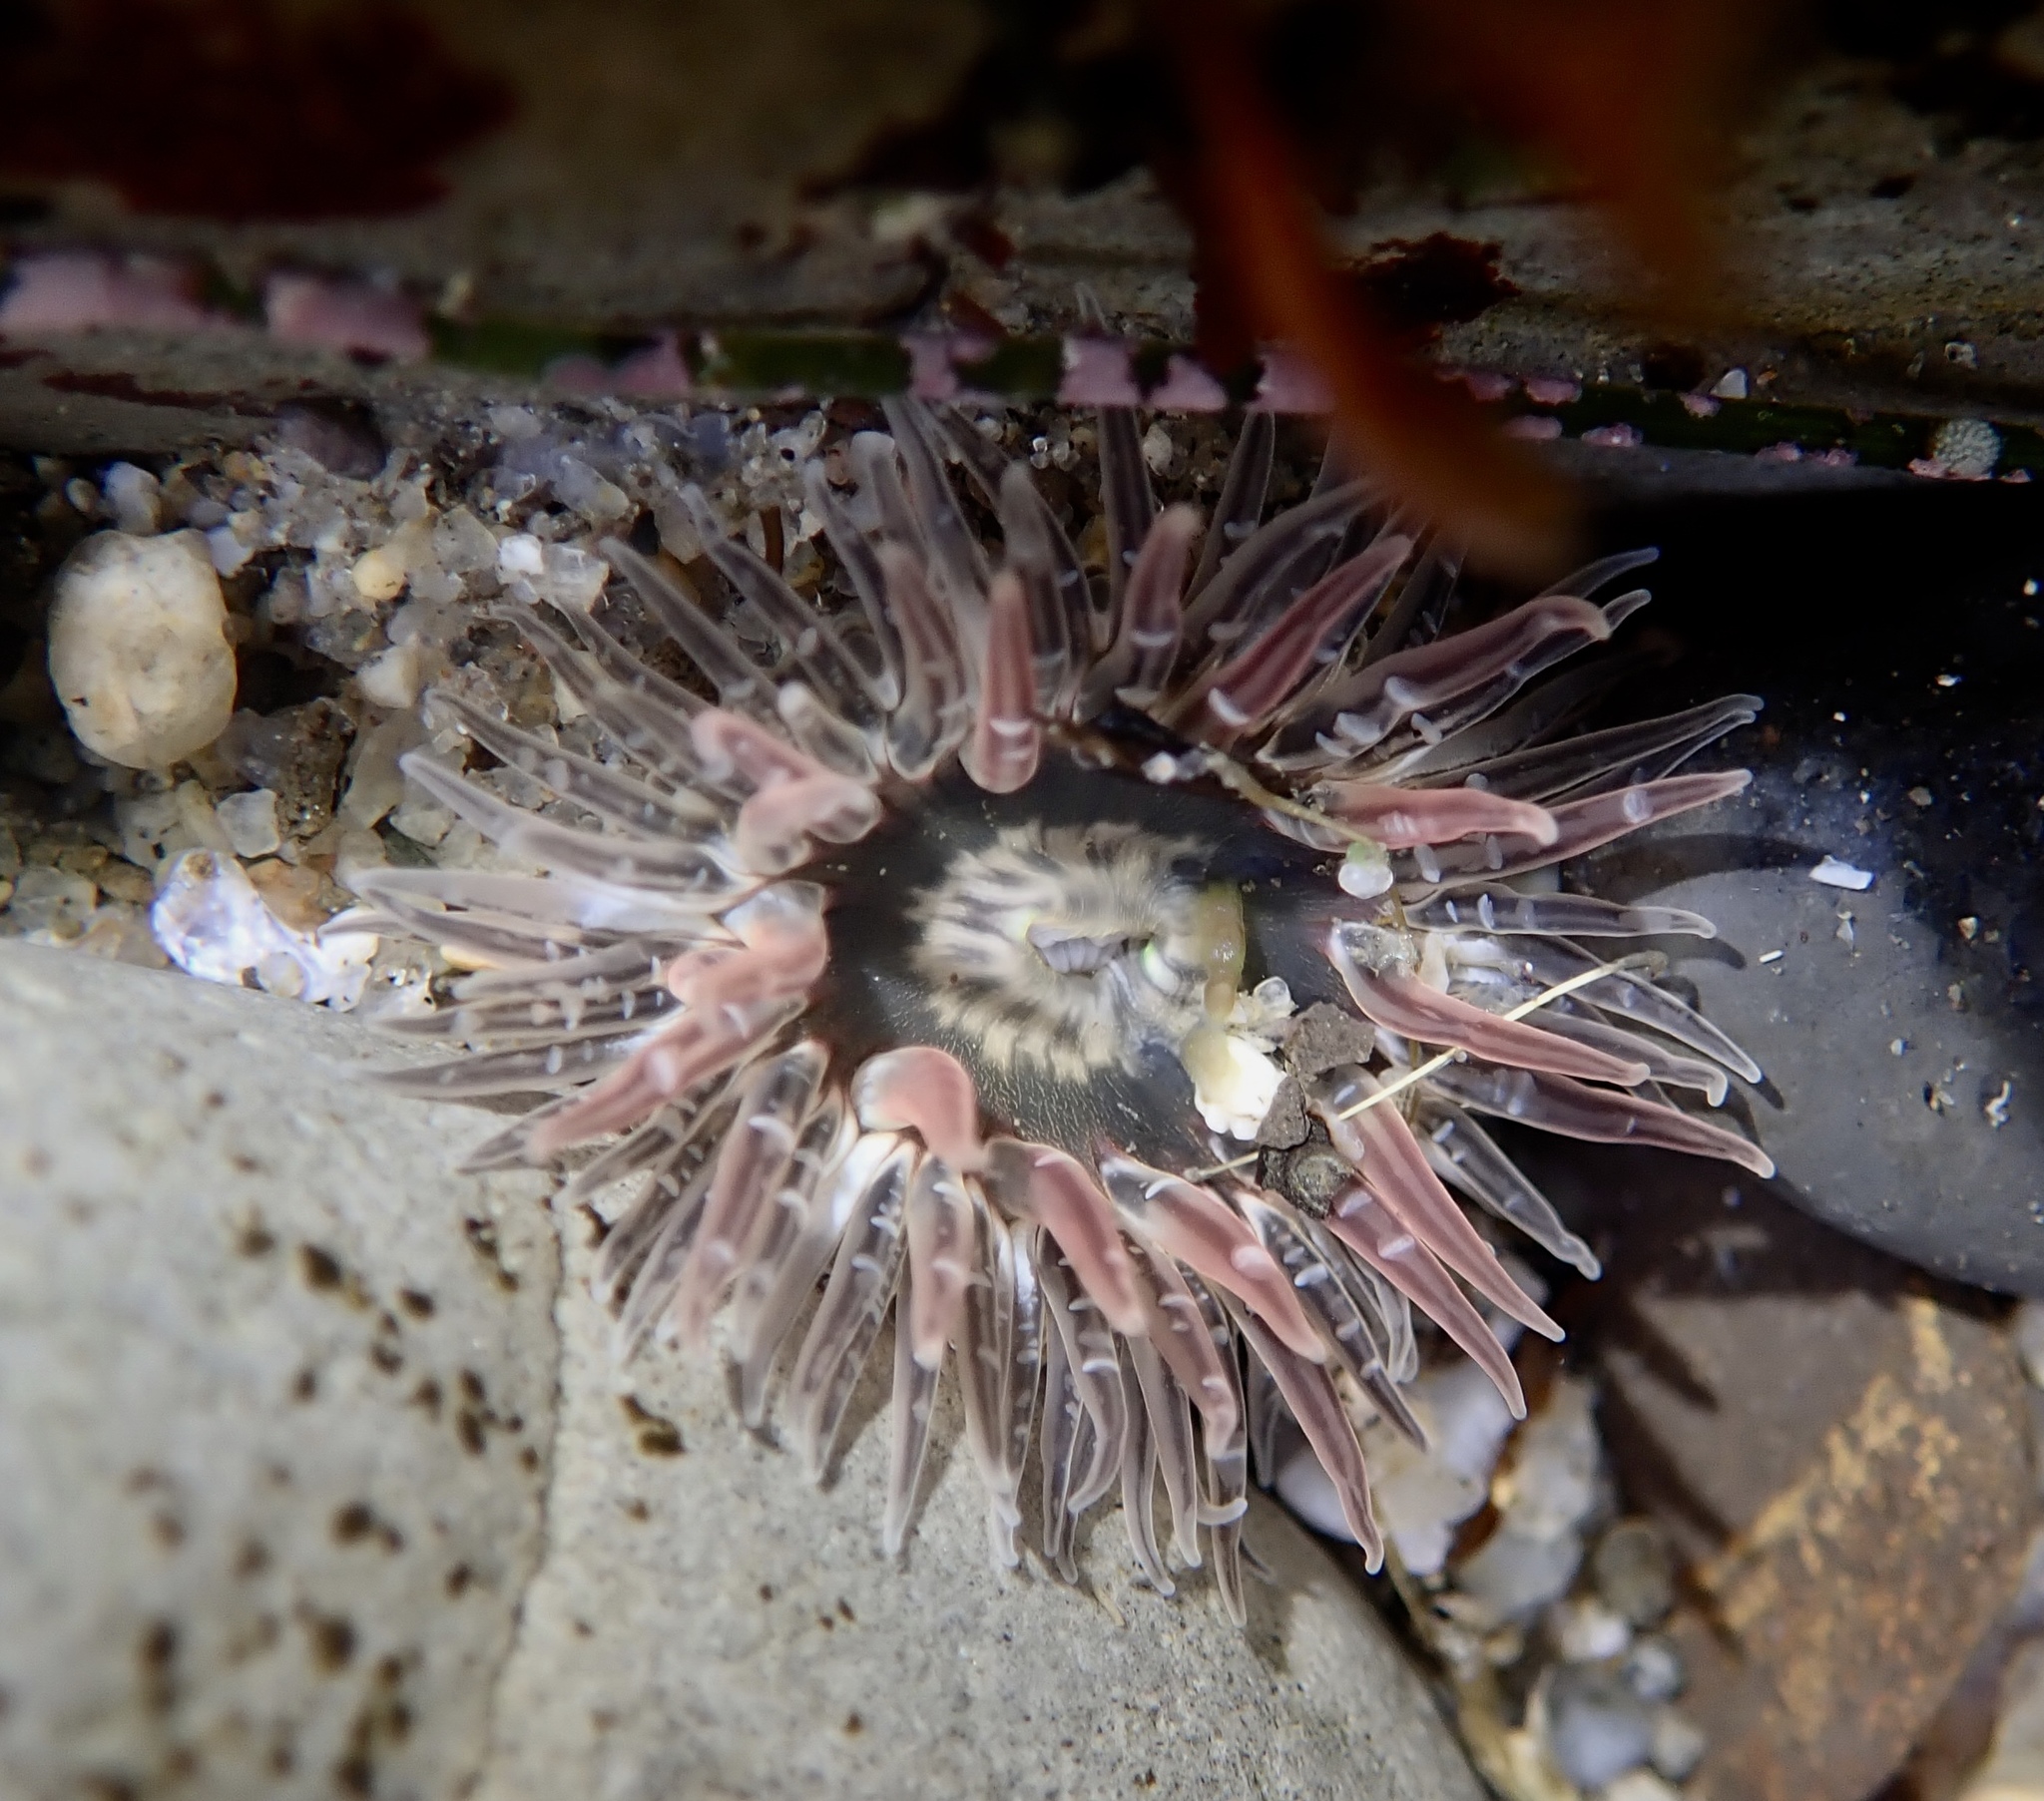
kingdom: Animalia
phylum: Cnidaria
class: Anthozoa
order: Actiniaria
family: Actiniidae
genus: Anthopleura
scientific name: Anthopleura artemisia
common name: Buried sea anemone
